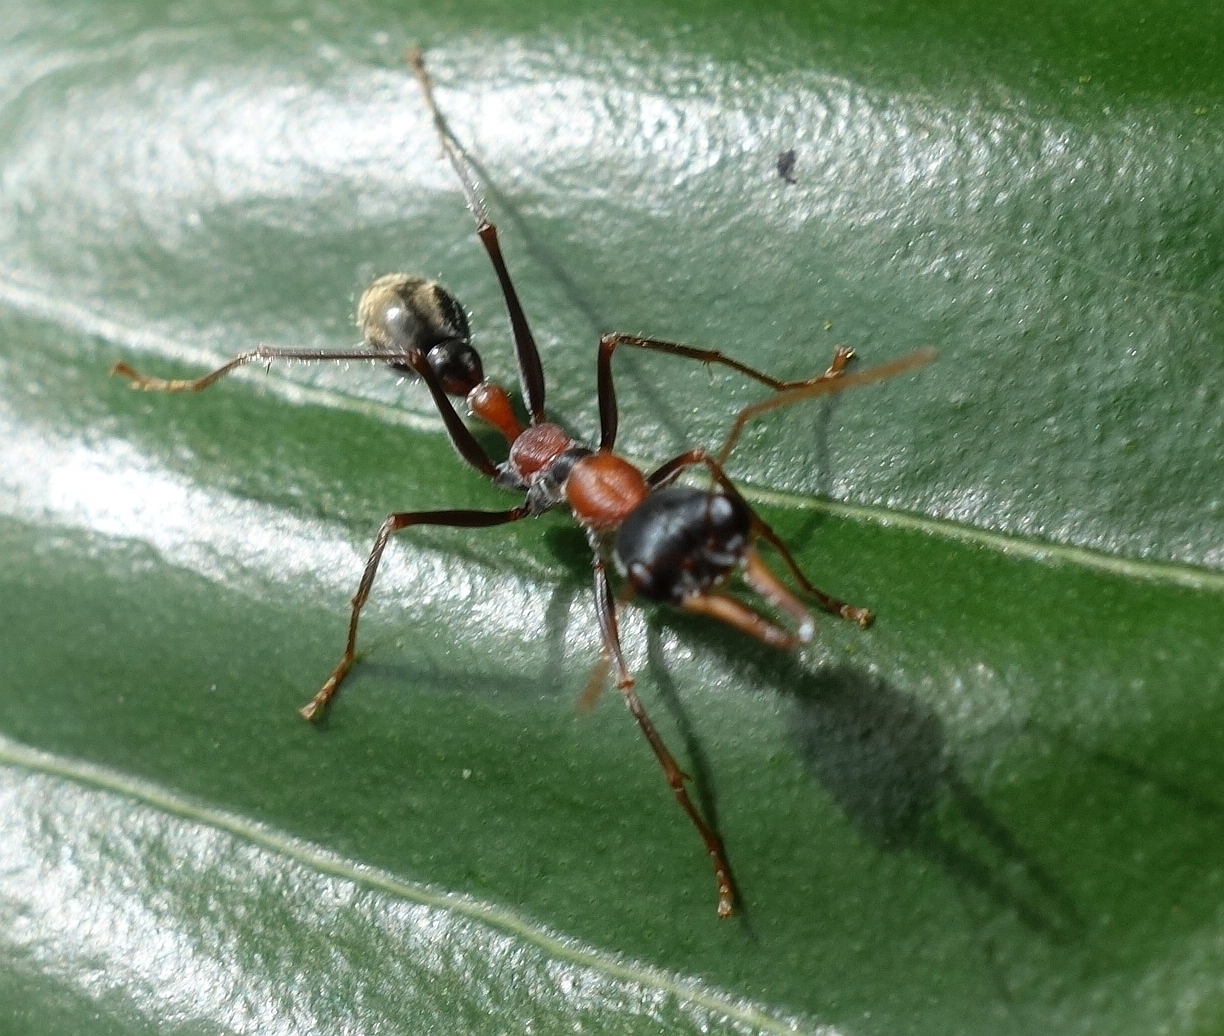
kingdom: Animalia
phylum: Arthropoda
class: Insecta
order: Hymenoptera
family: Formicidae
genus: Myrmecia
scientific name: Myrmecia nigrocincta
